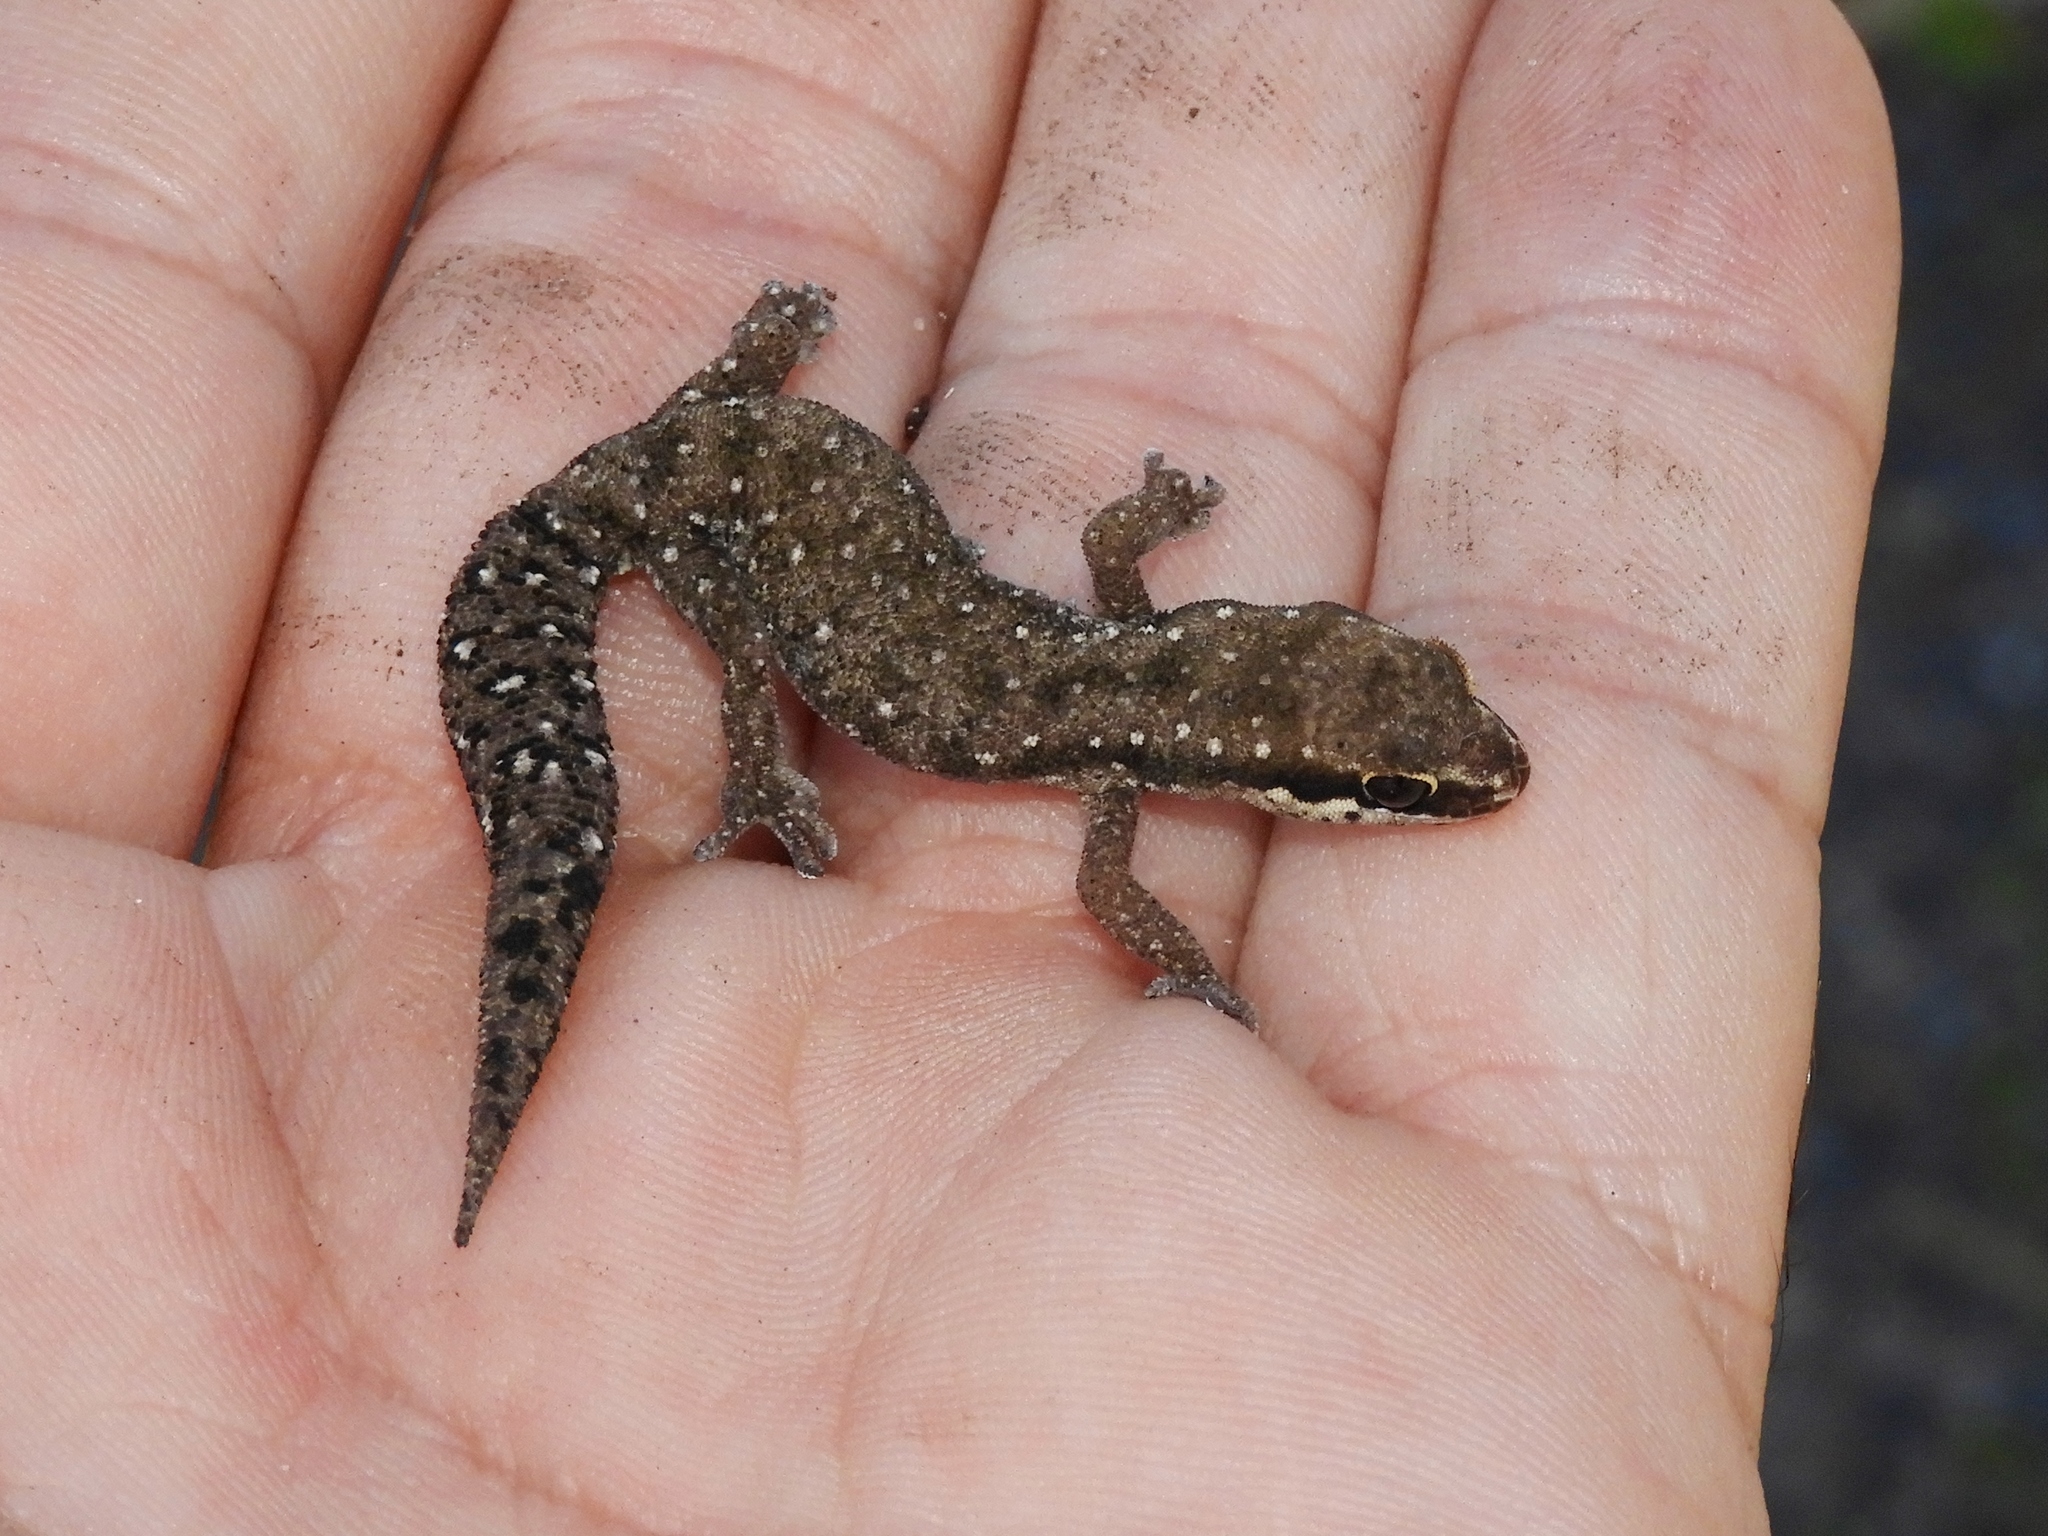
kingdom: Animalia
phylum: Chordata
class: Squamata
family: Gekkonidae
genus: Pachydactylus
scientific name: Pachydactylus geitje
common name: Ocellated thick-toed gecko
